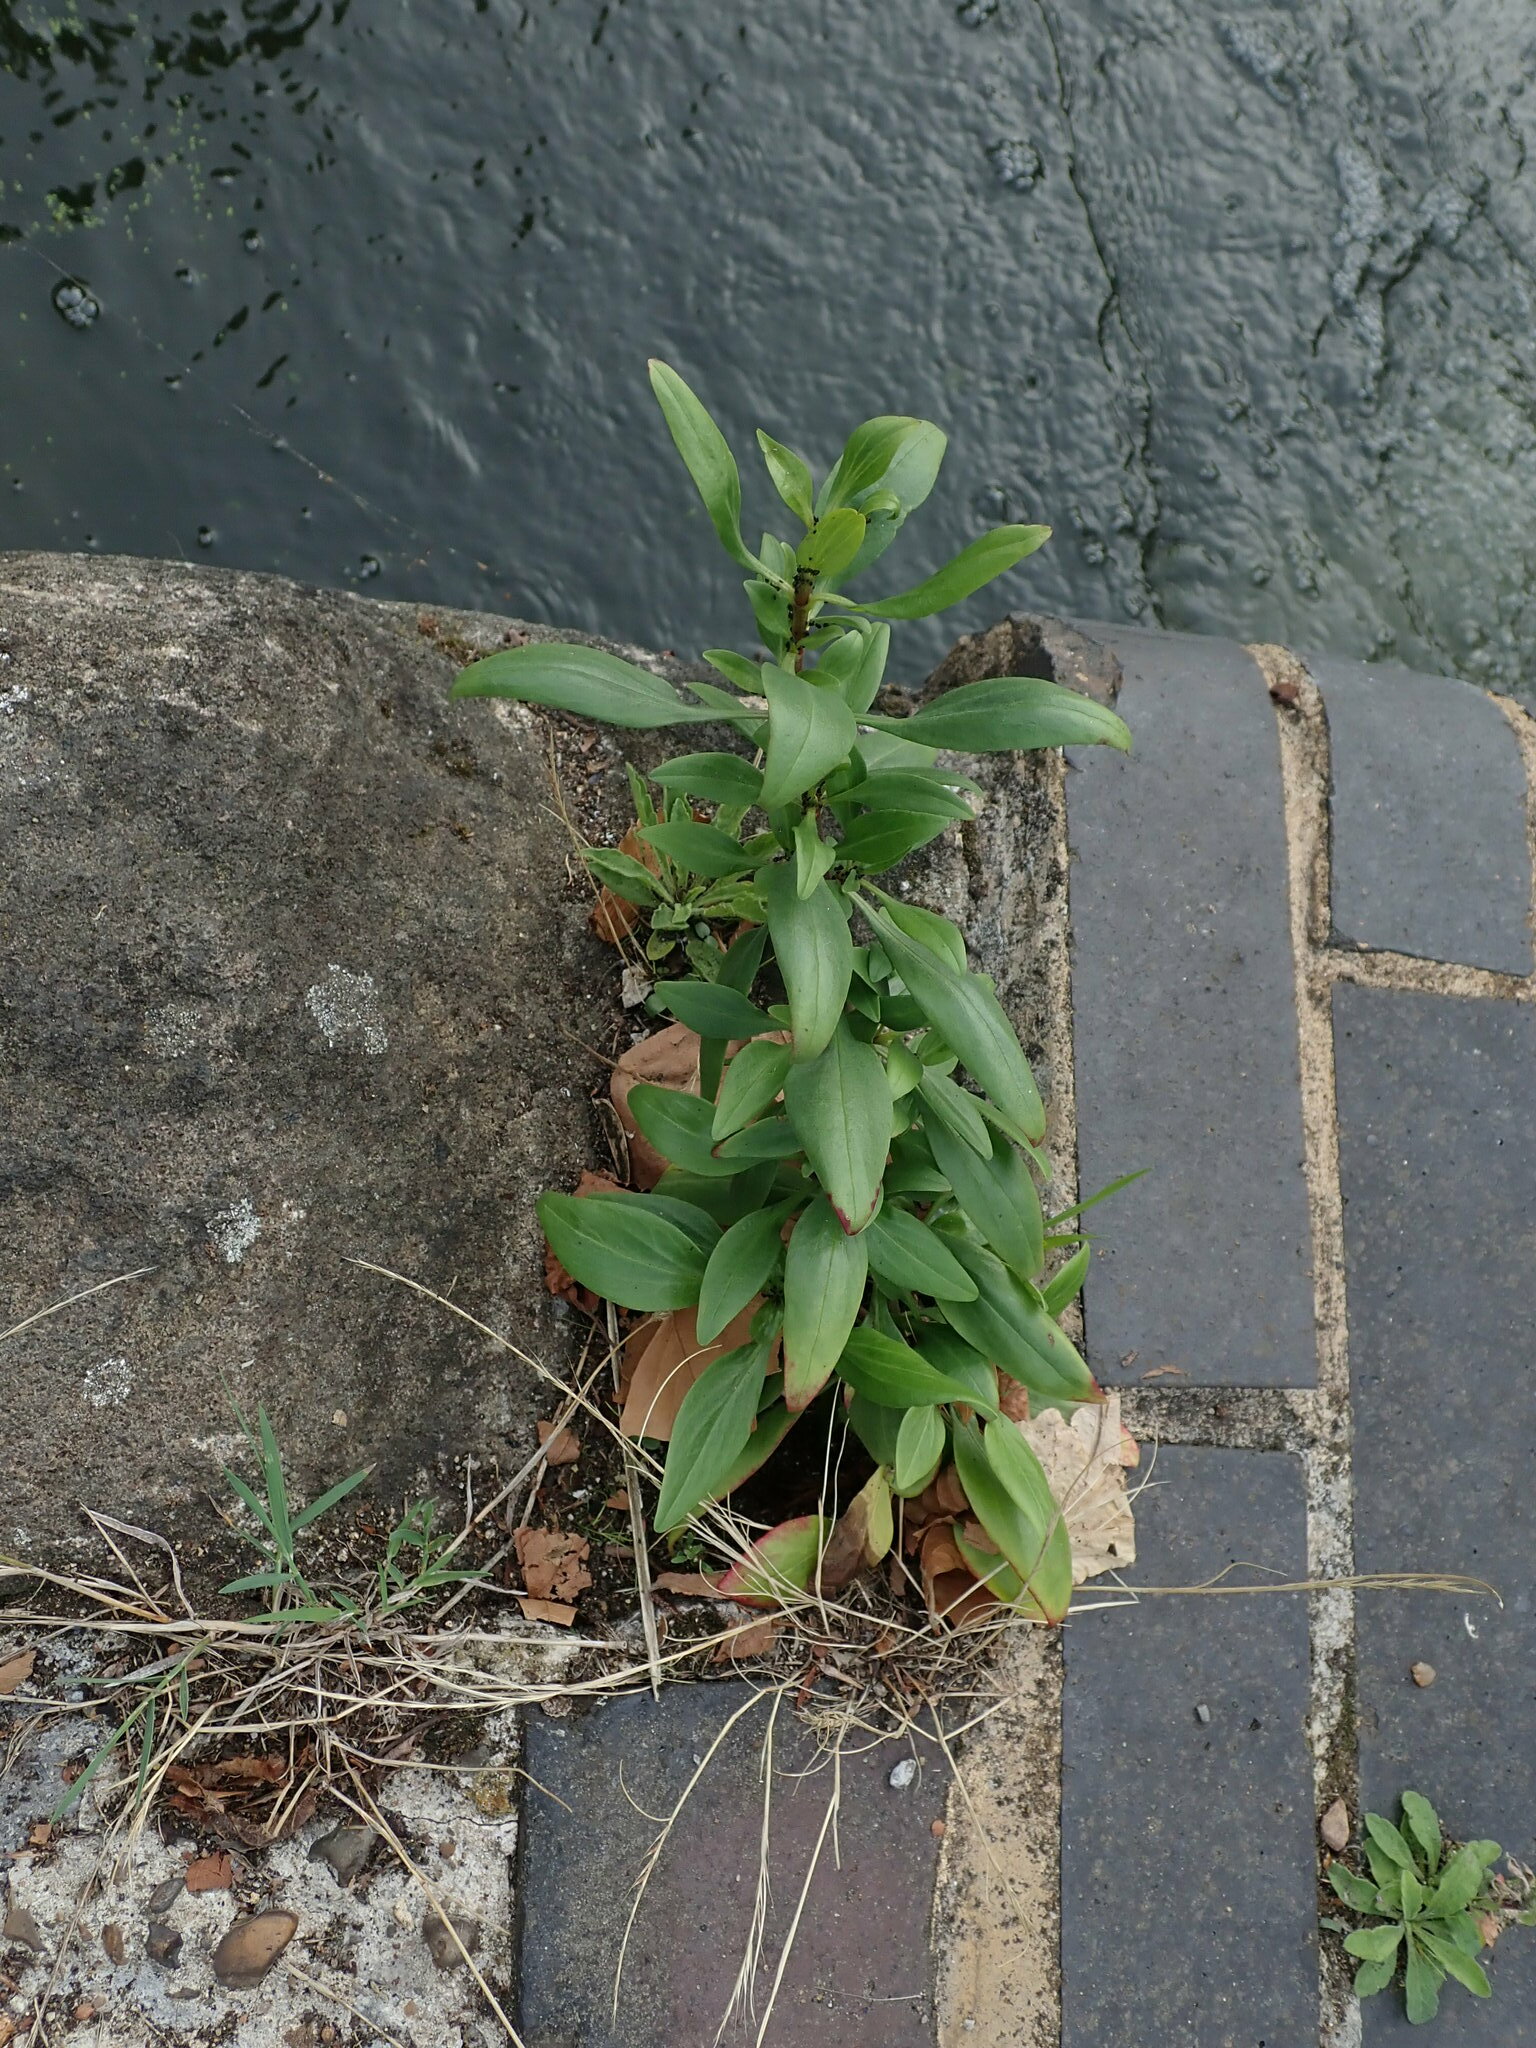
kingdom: Plantae
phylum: Tracheophyta
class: Magnoliopsida
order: Dipsacales
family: Caprifoliaceae
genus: Centranthus
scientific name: Centranthus ruber
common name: Red valerian
